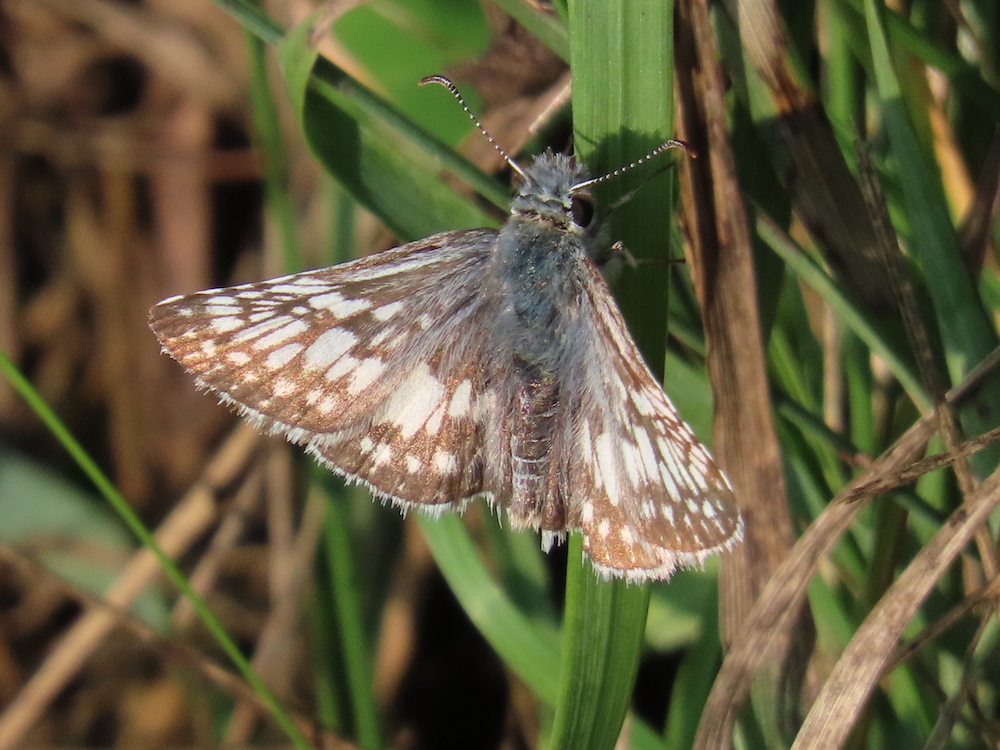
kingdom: Animalia
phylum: Arthropoda
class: Insecta
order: Lepidoptera
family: Hesperiidae
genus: Burnsius
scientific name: Burnsius communis
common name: Common checkered-skipper
